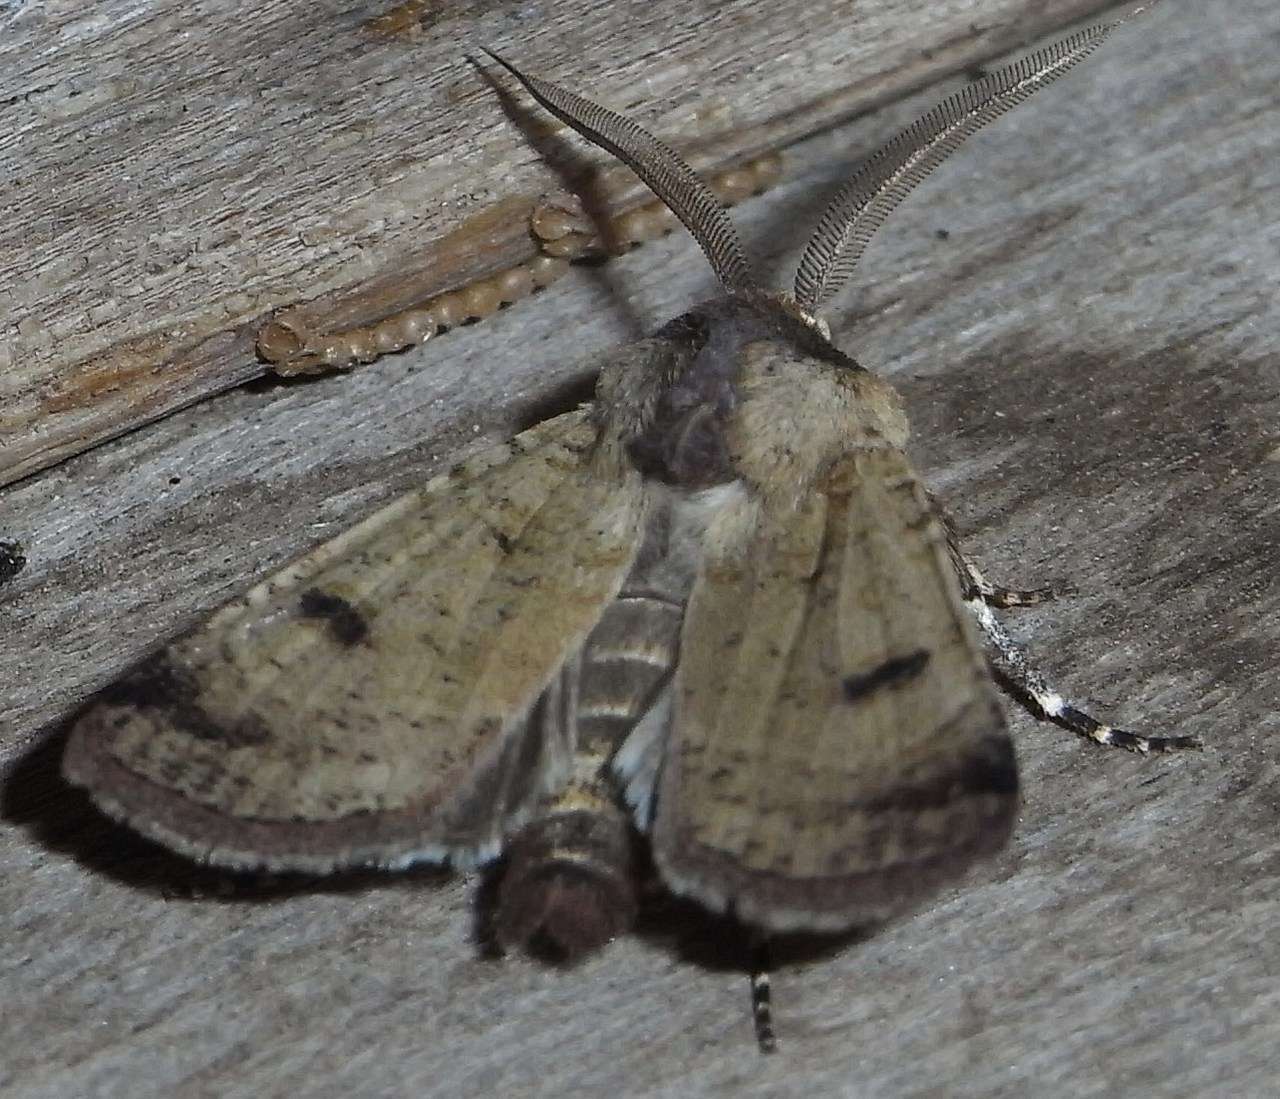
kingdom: Animalia
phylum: Arthropoda
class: Insecta
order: Lepidoptera
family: Noctuidae
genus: Agrotis
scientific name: Agrotis porphyricollis
